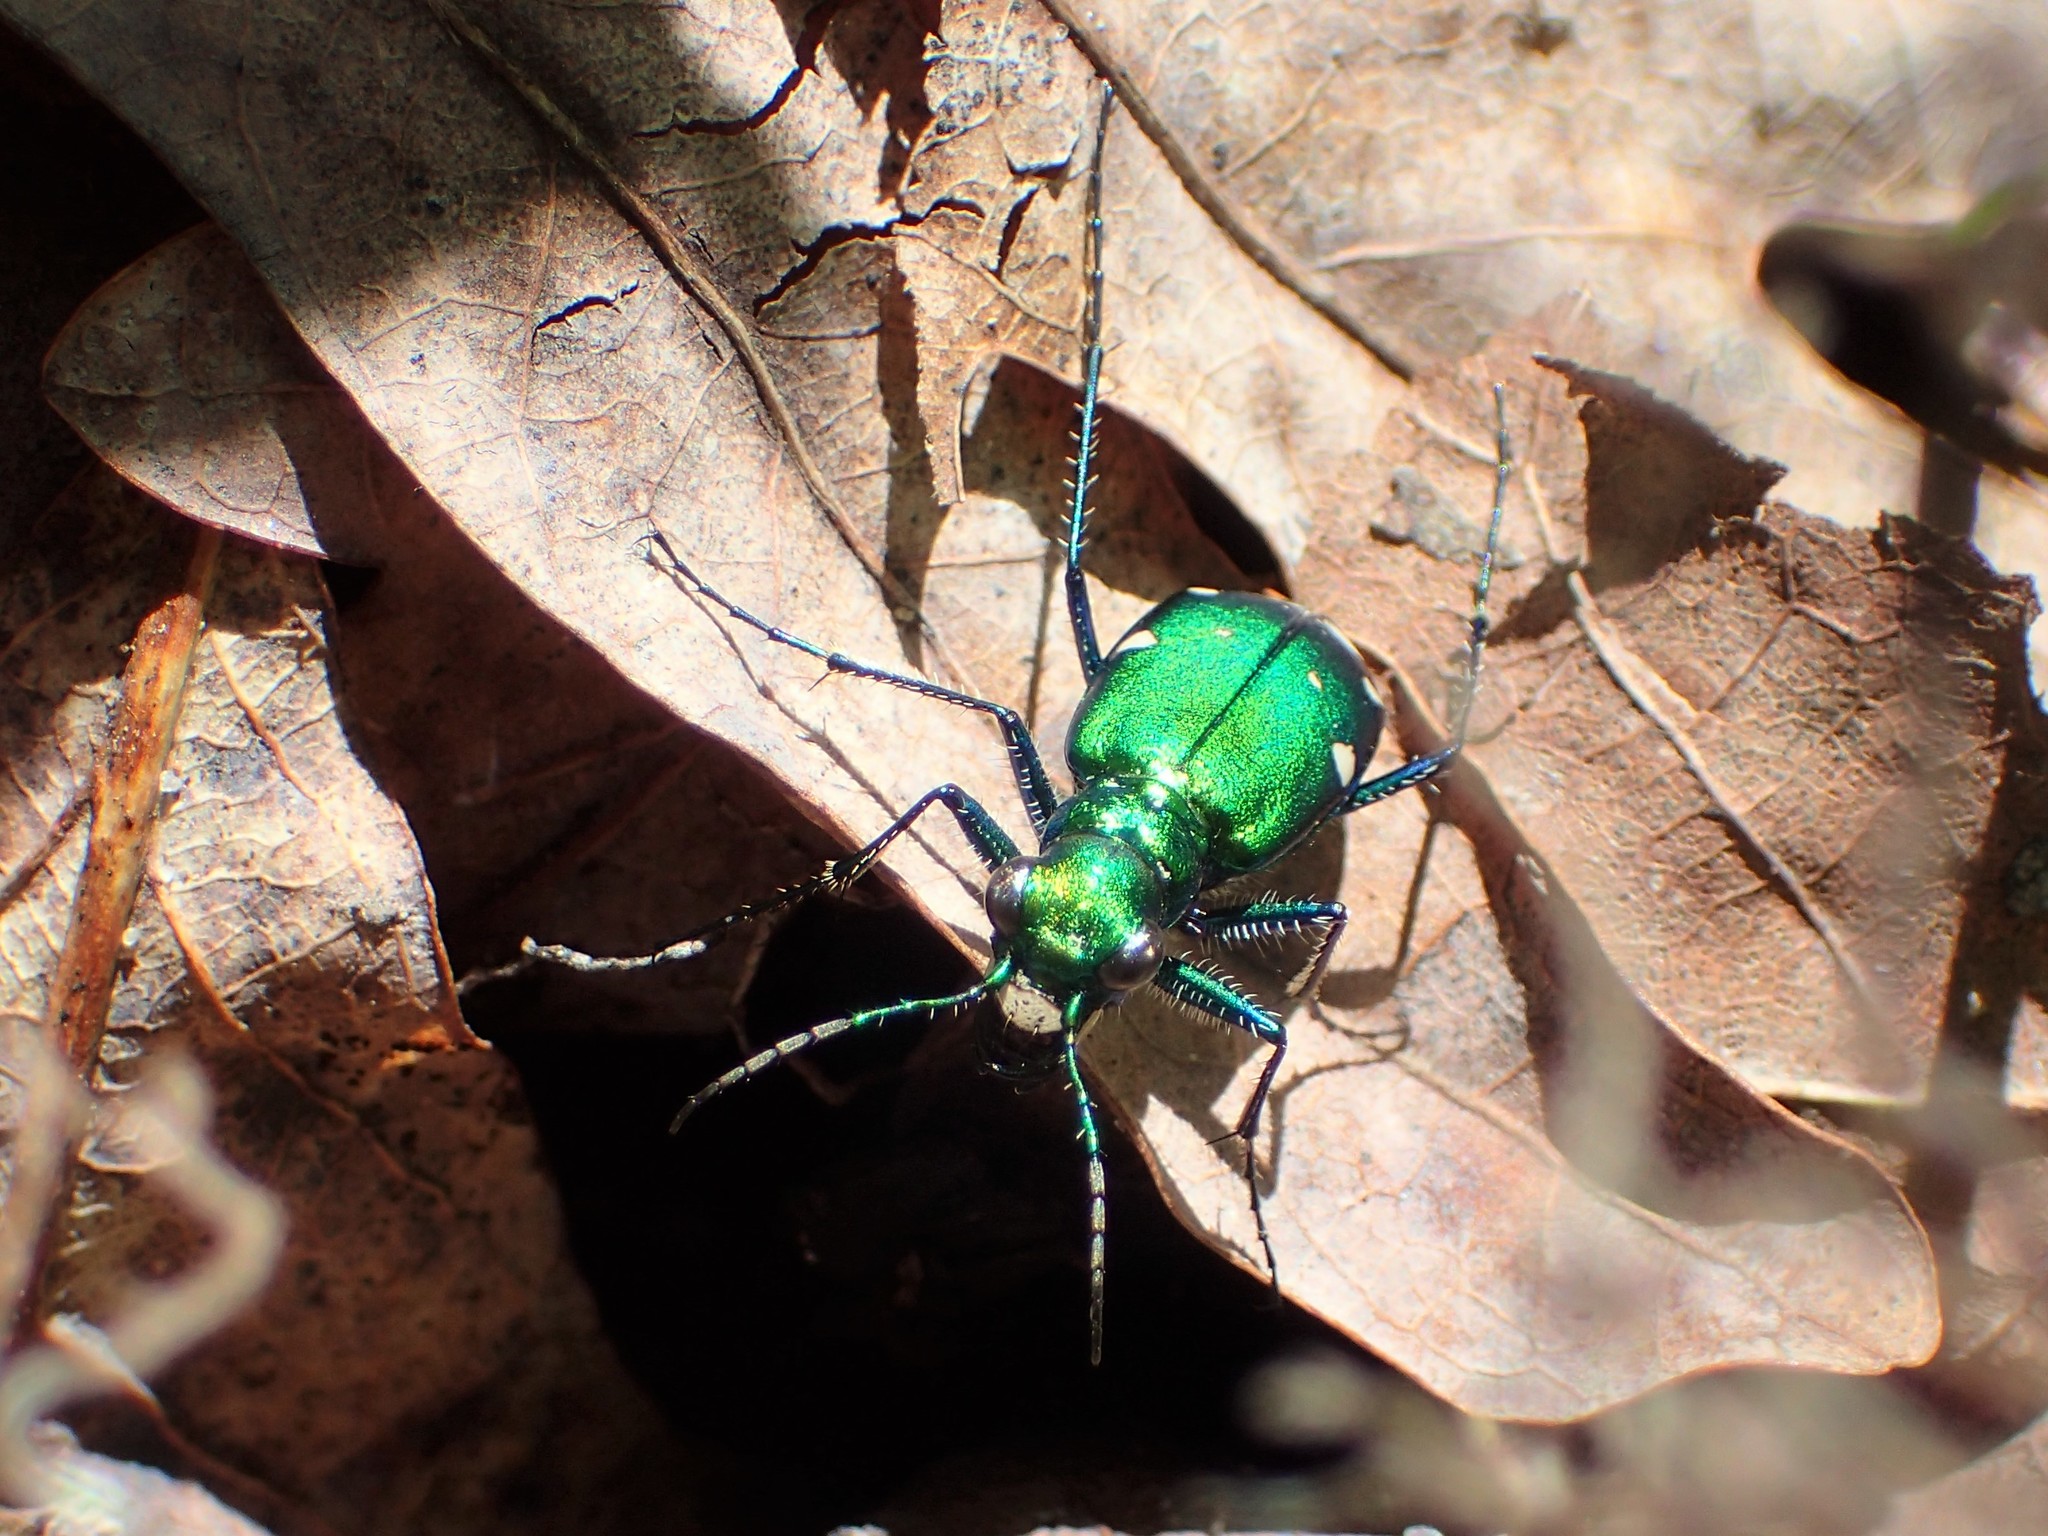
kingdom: Animalia
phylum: Arthropoda
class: Insecta
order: Coleoptera
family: Carabidae
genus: Cicindela
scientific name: Cicindela sexguttata
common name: Six-spotted tiger beetle
